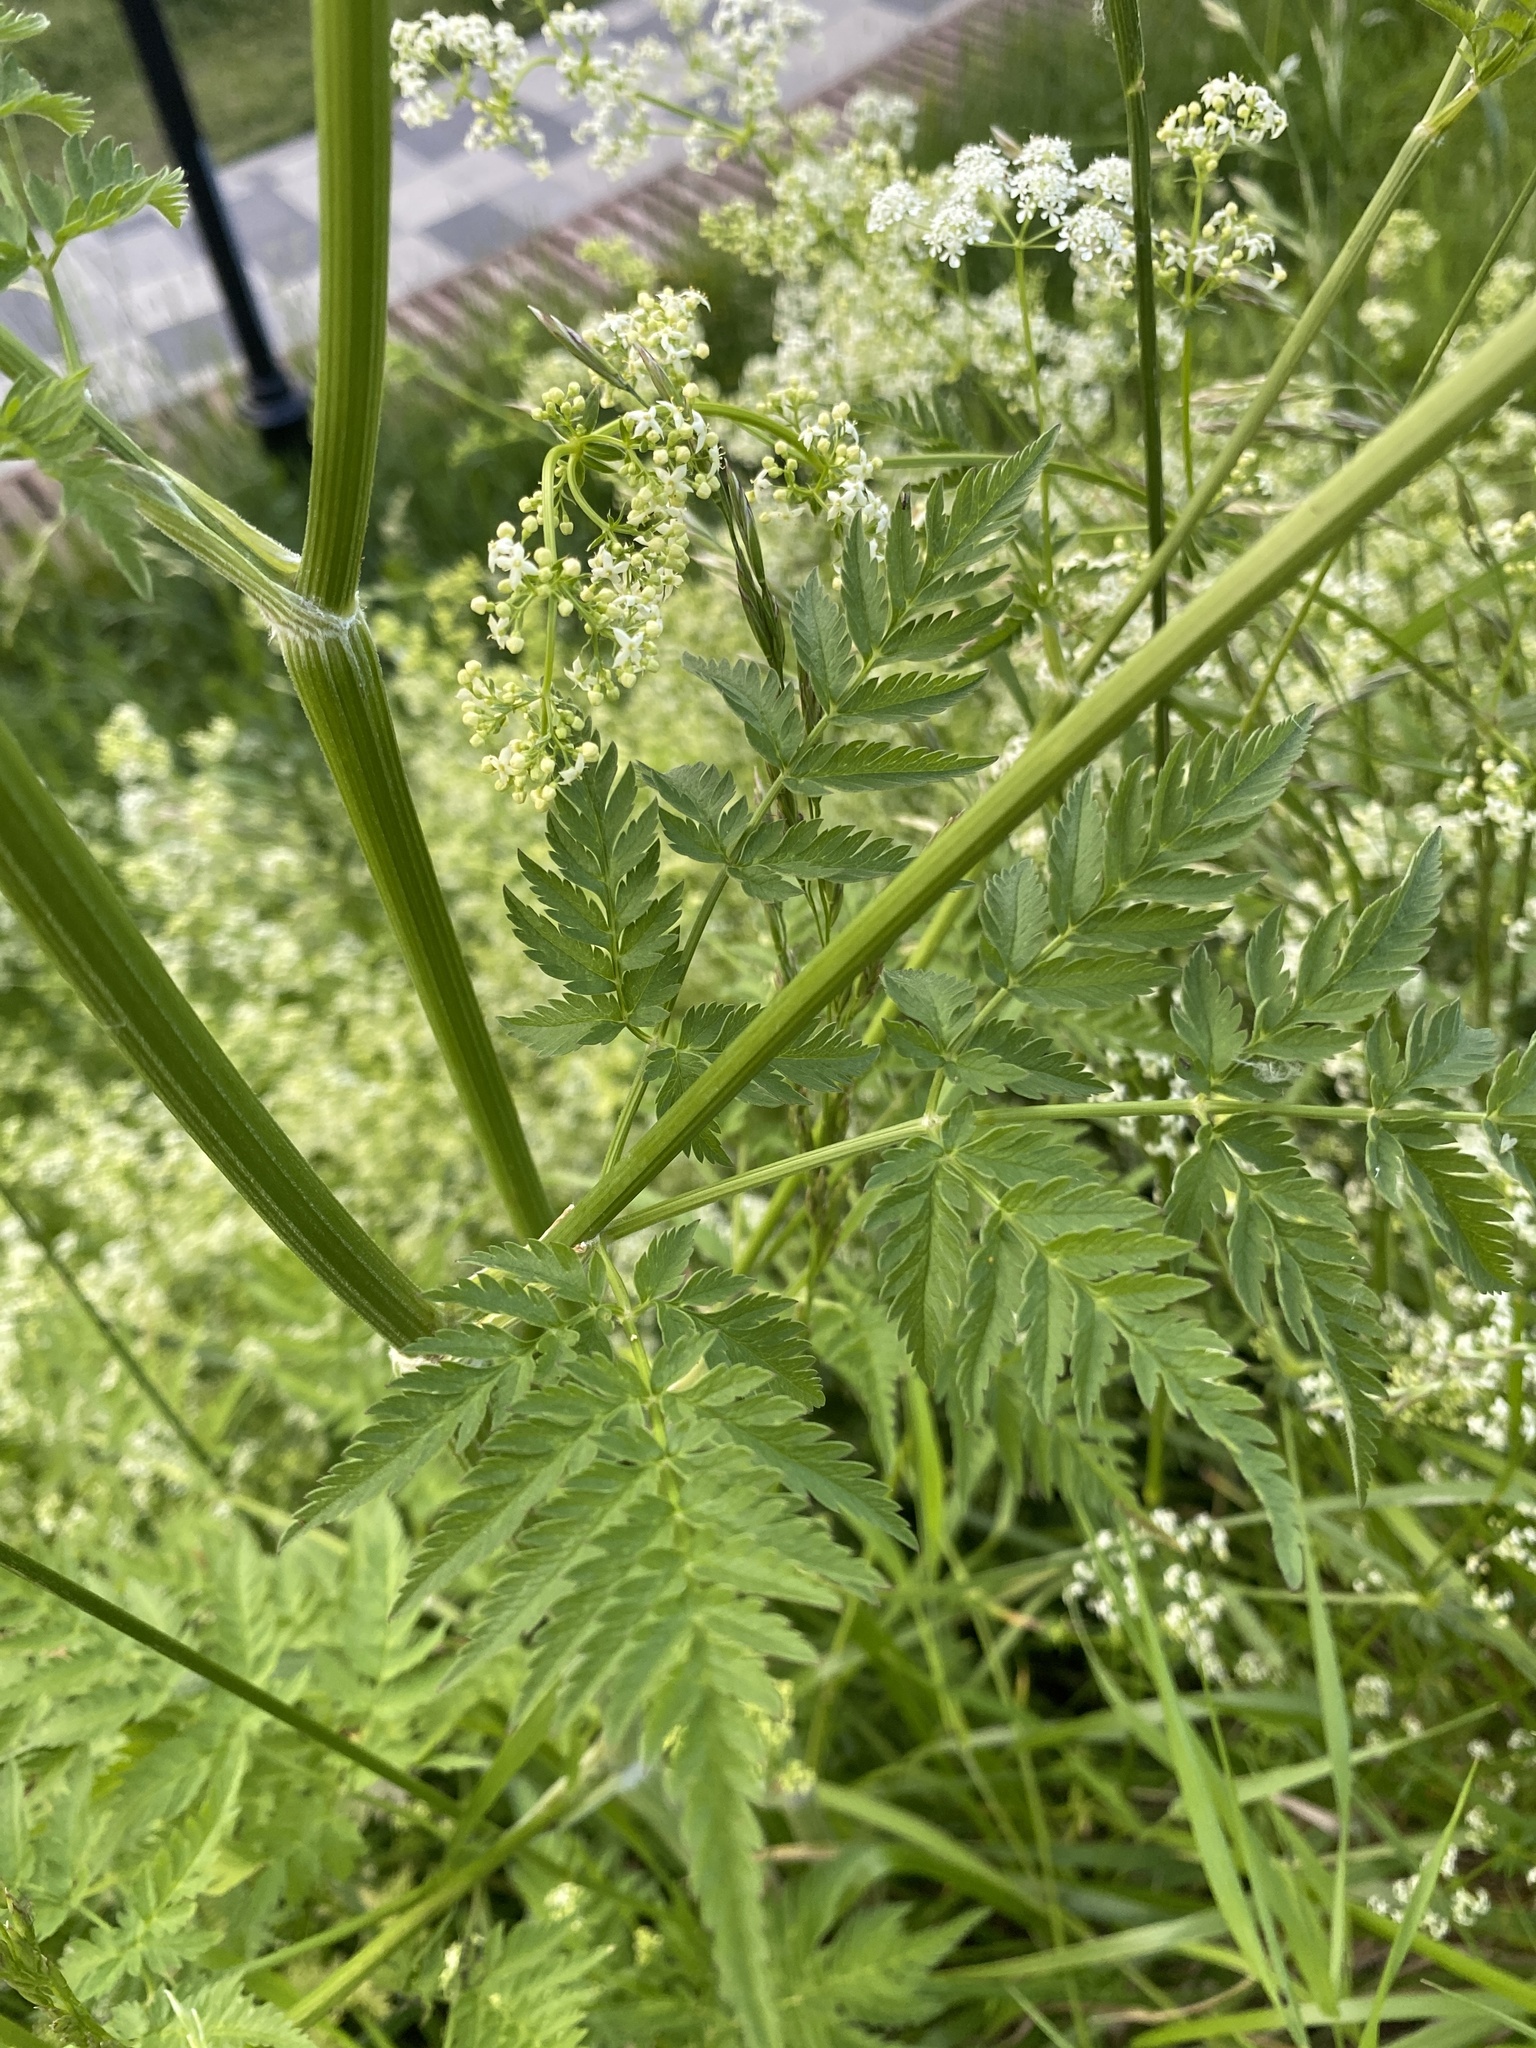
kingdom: Plantae
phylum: Tracheophyta
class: Magnoliopsida
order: Apiales
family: Apiaceae
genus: Anthriscus
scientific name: Anthriscus sylvestris
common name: Cow parsley
